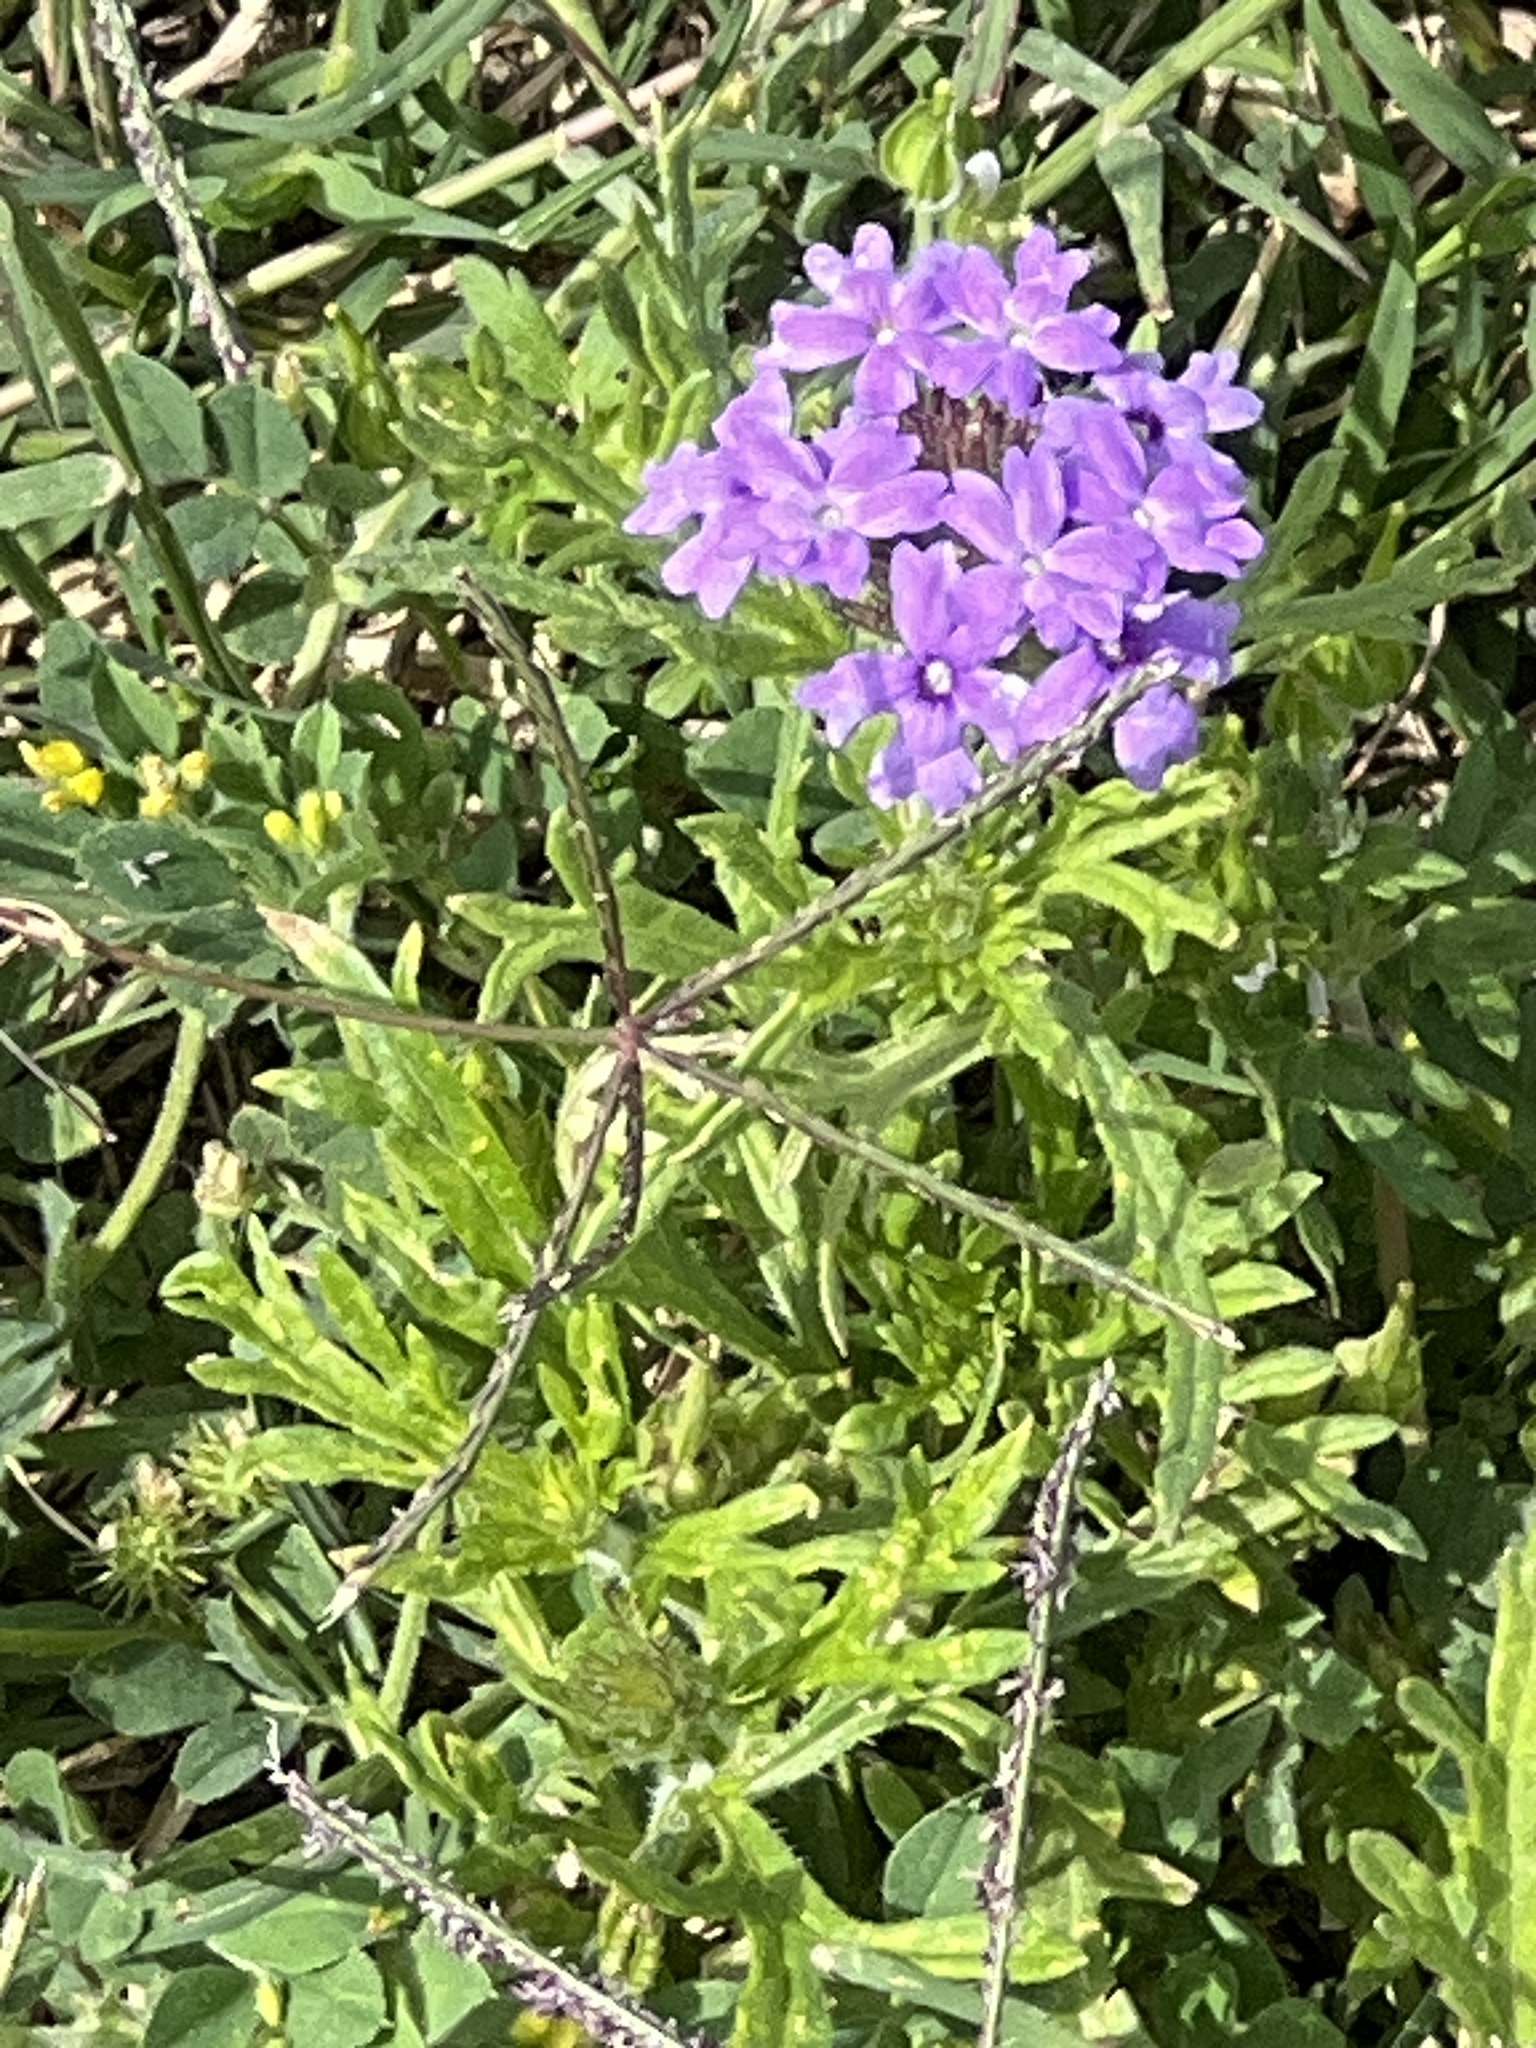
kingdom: Plantae
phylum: Tracheophyta
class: Magnoliopsida
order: Lamiales
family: Verbenaceae
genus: Verbena
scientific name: Verbena bipinnatifida
